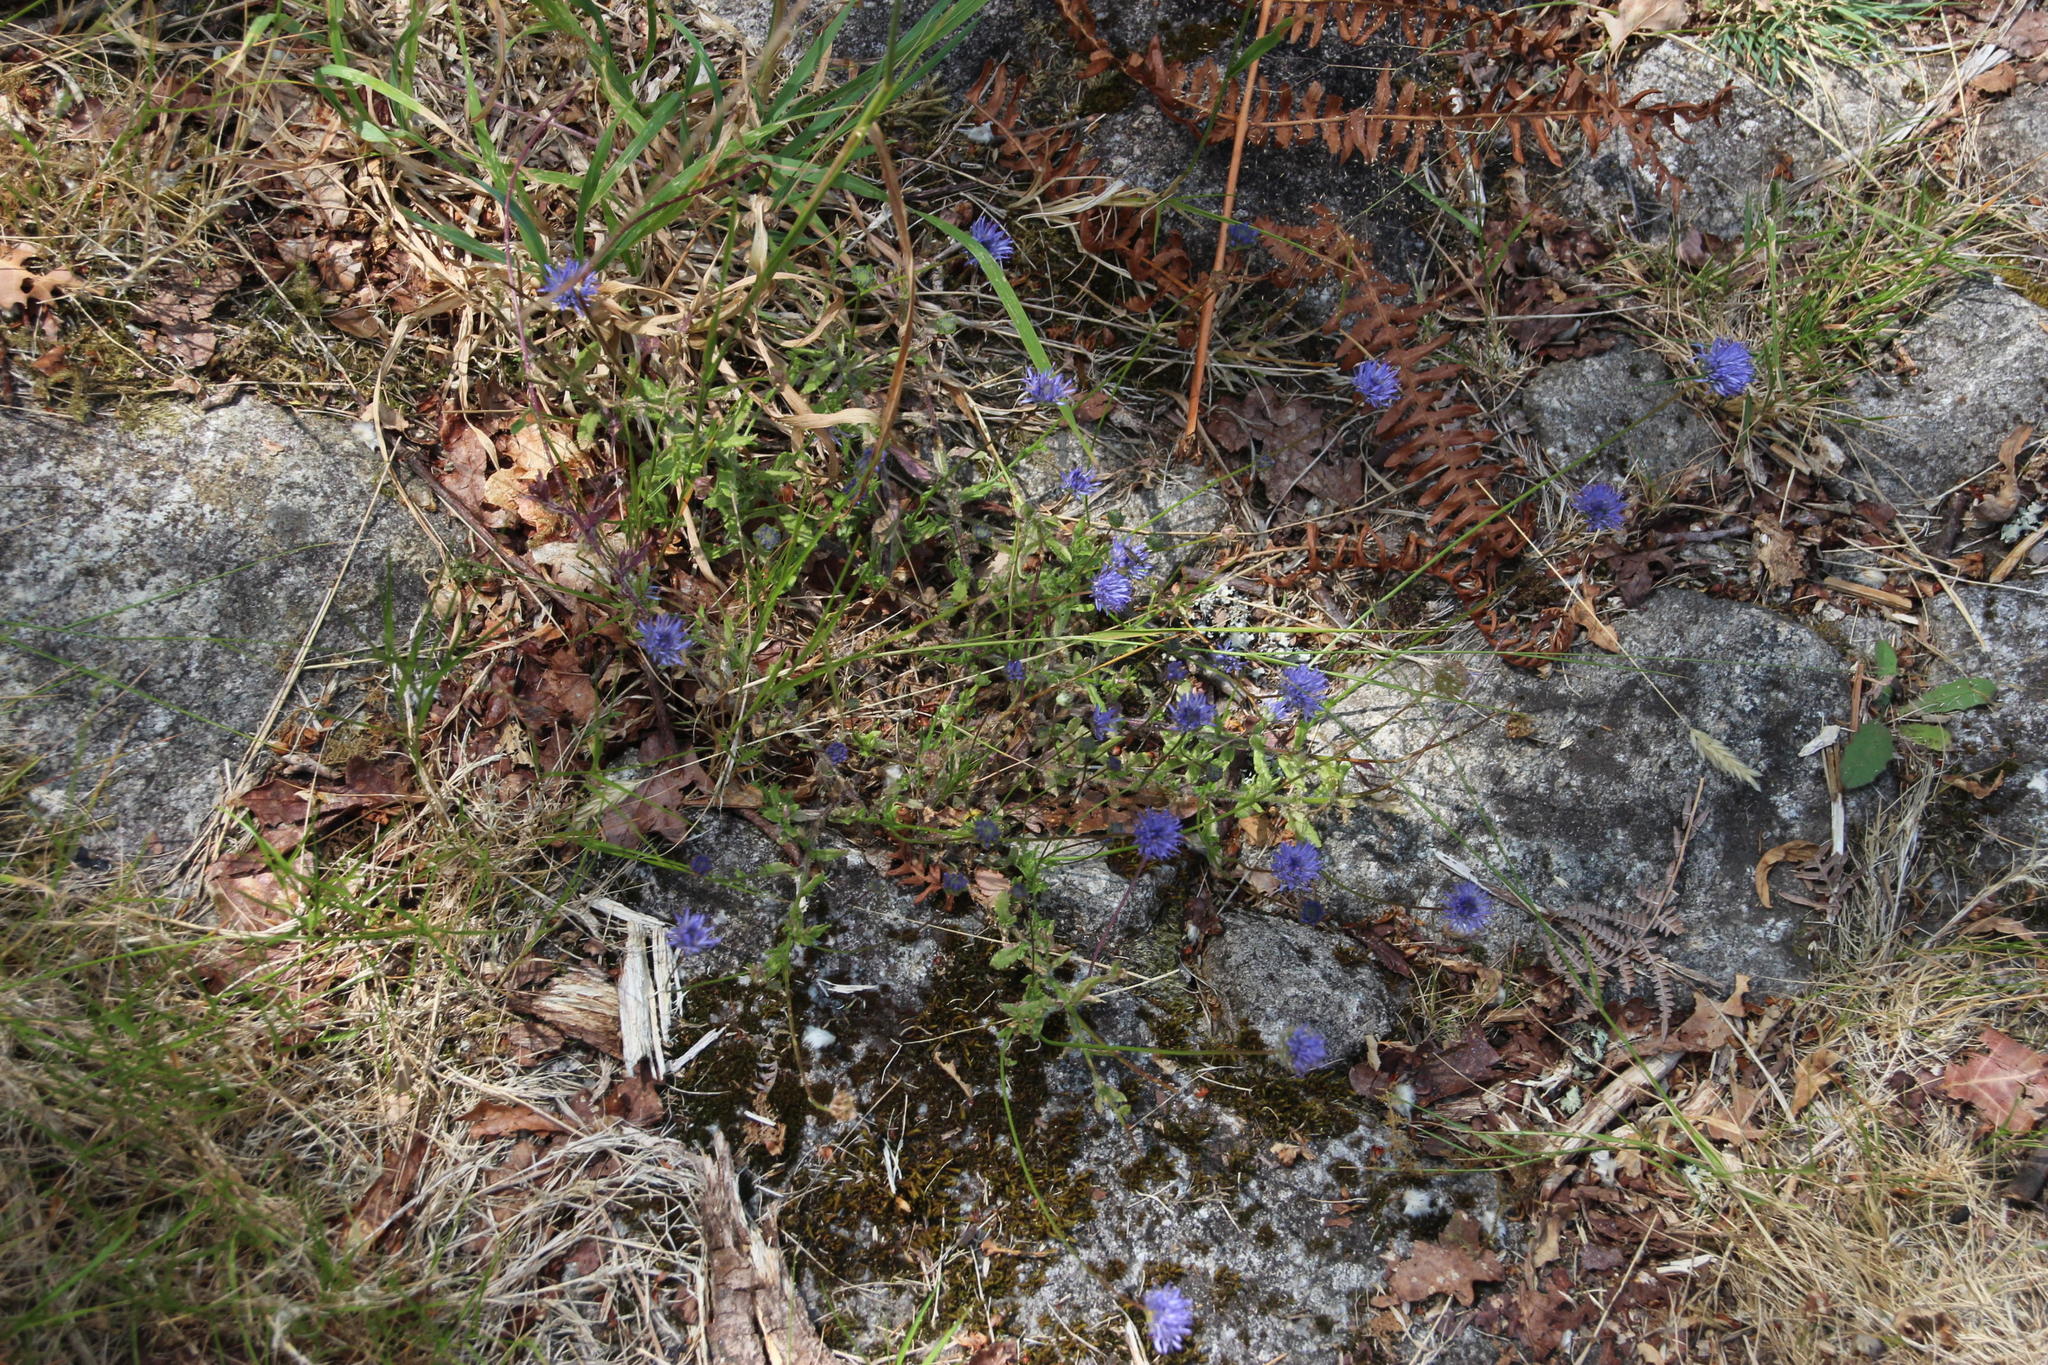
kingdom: Plantae
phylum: Tracheophyta
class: Magnoliopsida
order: Asterales
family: Campanulaceae
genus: Jasione
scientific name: Jasione montana
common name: Sheep's-bit
